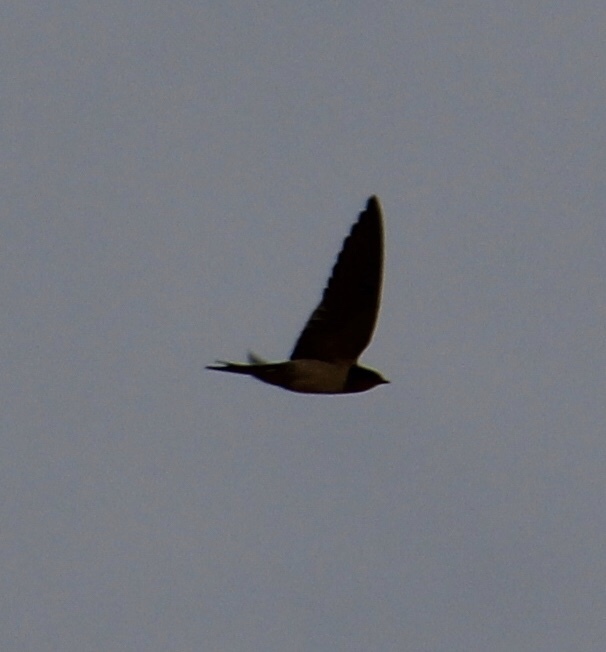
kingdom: Animalia
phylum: Chordata
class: Aves
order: Passeriformes
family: Hirundinidae
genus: Hirundo
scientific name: Hirundo rustica
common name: Barn swallow
